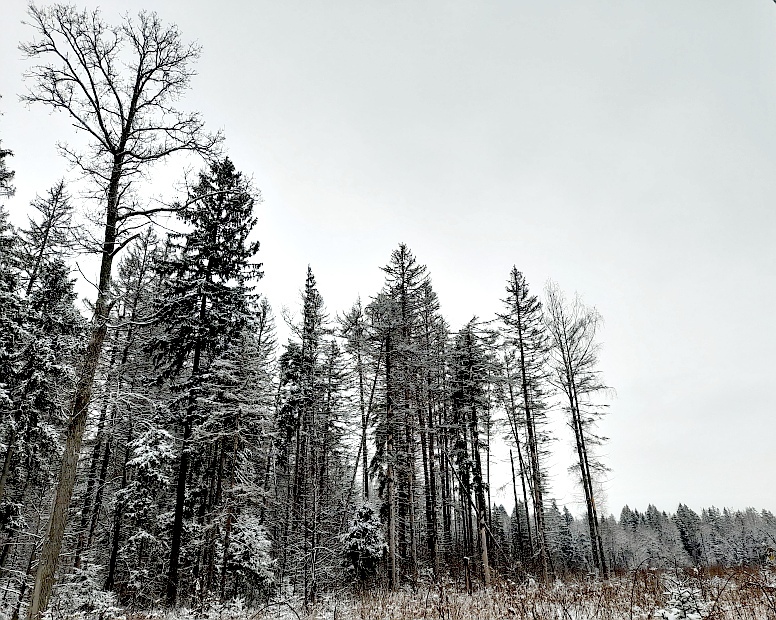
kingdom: Plantae
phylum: Tracheophyta
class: Pinopsida
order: Pinales
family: Pinaceae
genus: Picea
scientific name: Picea abies
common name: Norway spruce
